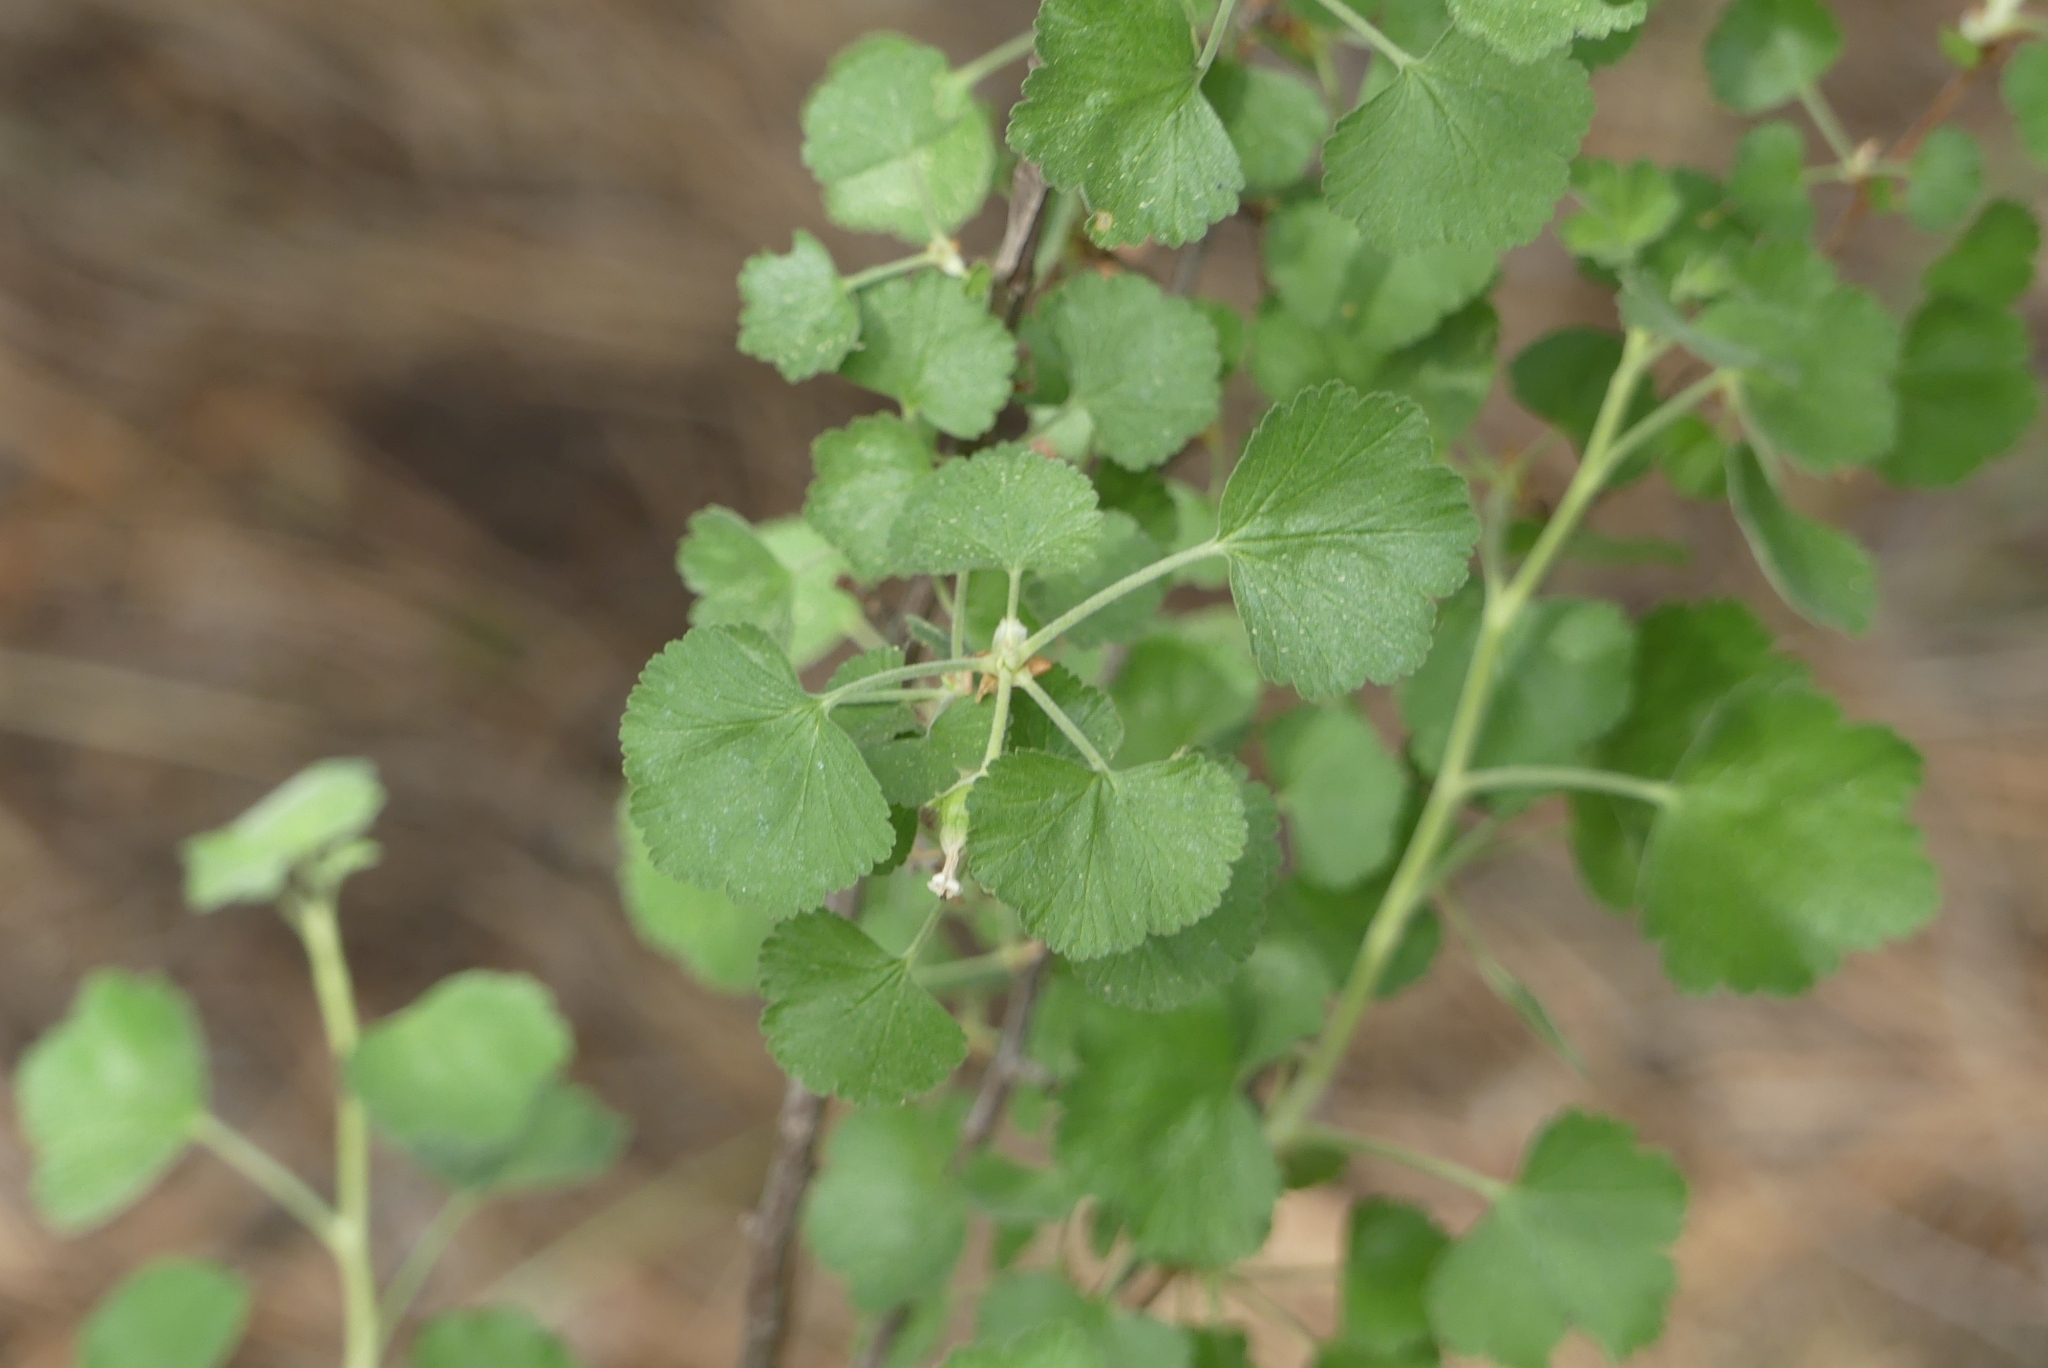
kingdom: Plantae
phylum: Tracheophyta
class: Magnoliopsida
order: Saxifragales
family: Grossulariaceae
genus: Ribes
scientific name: Ribes cereum
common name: Wax currant
